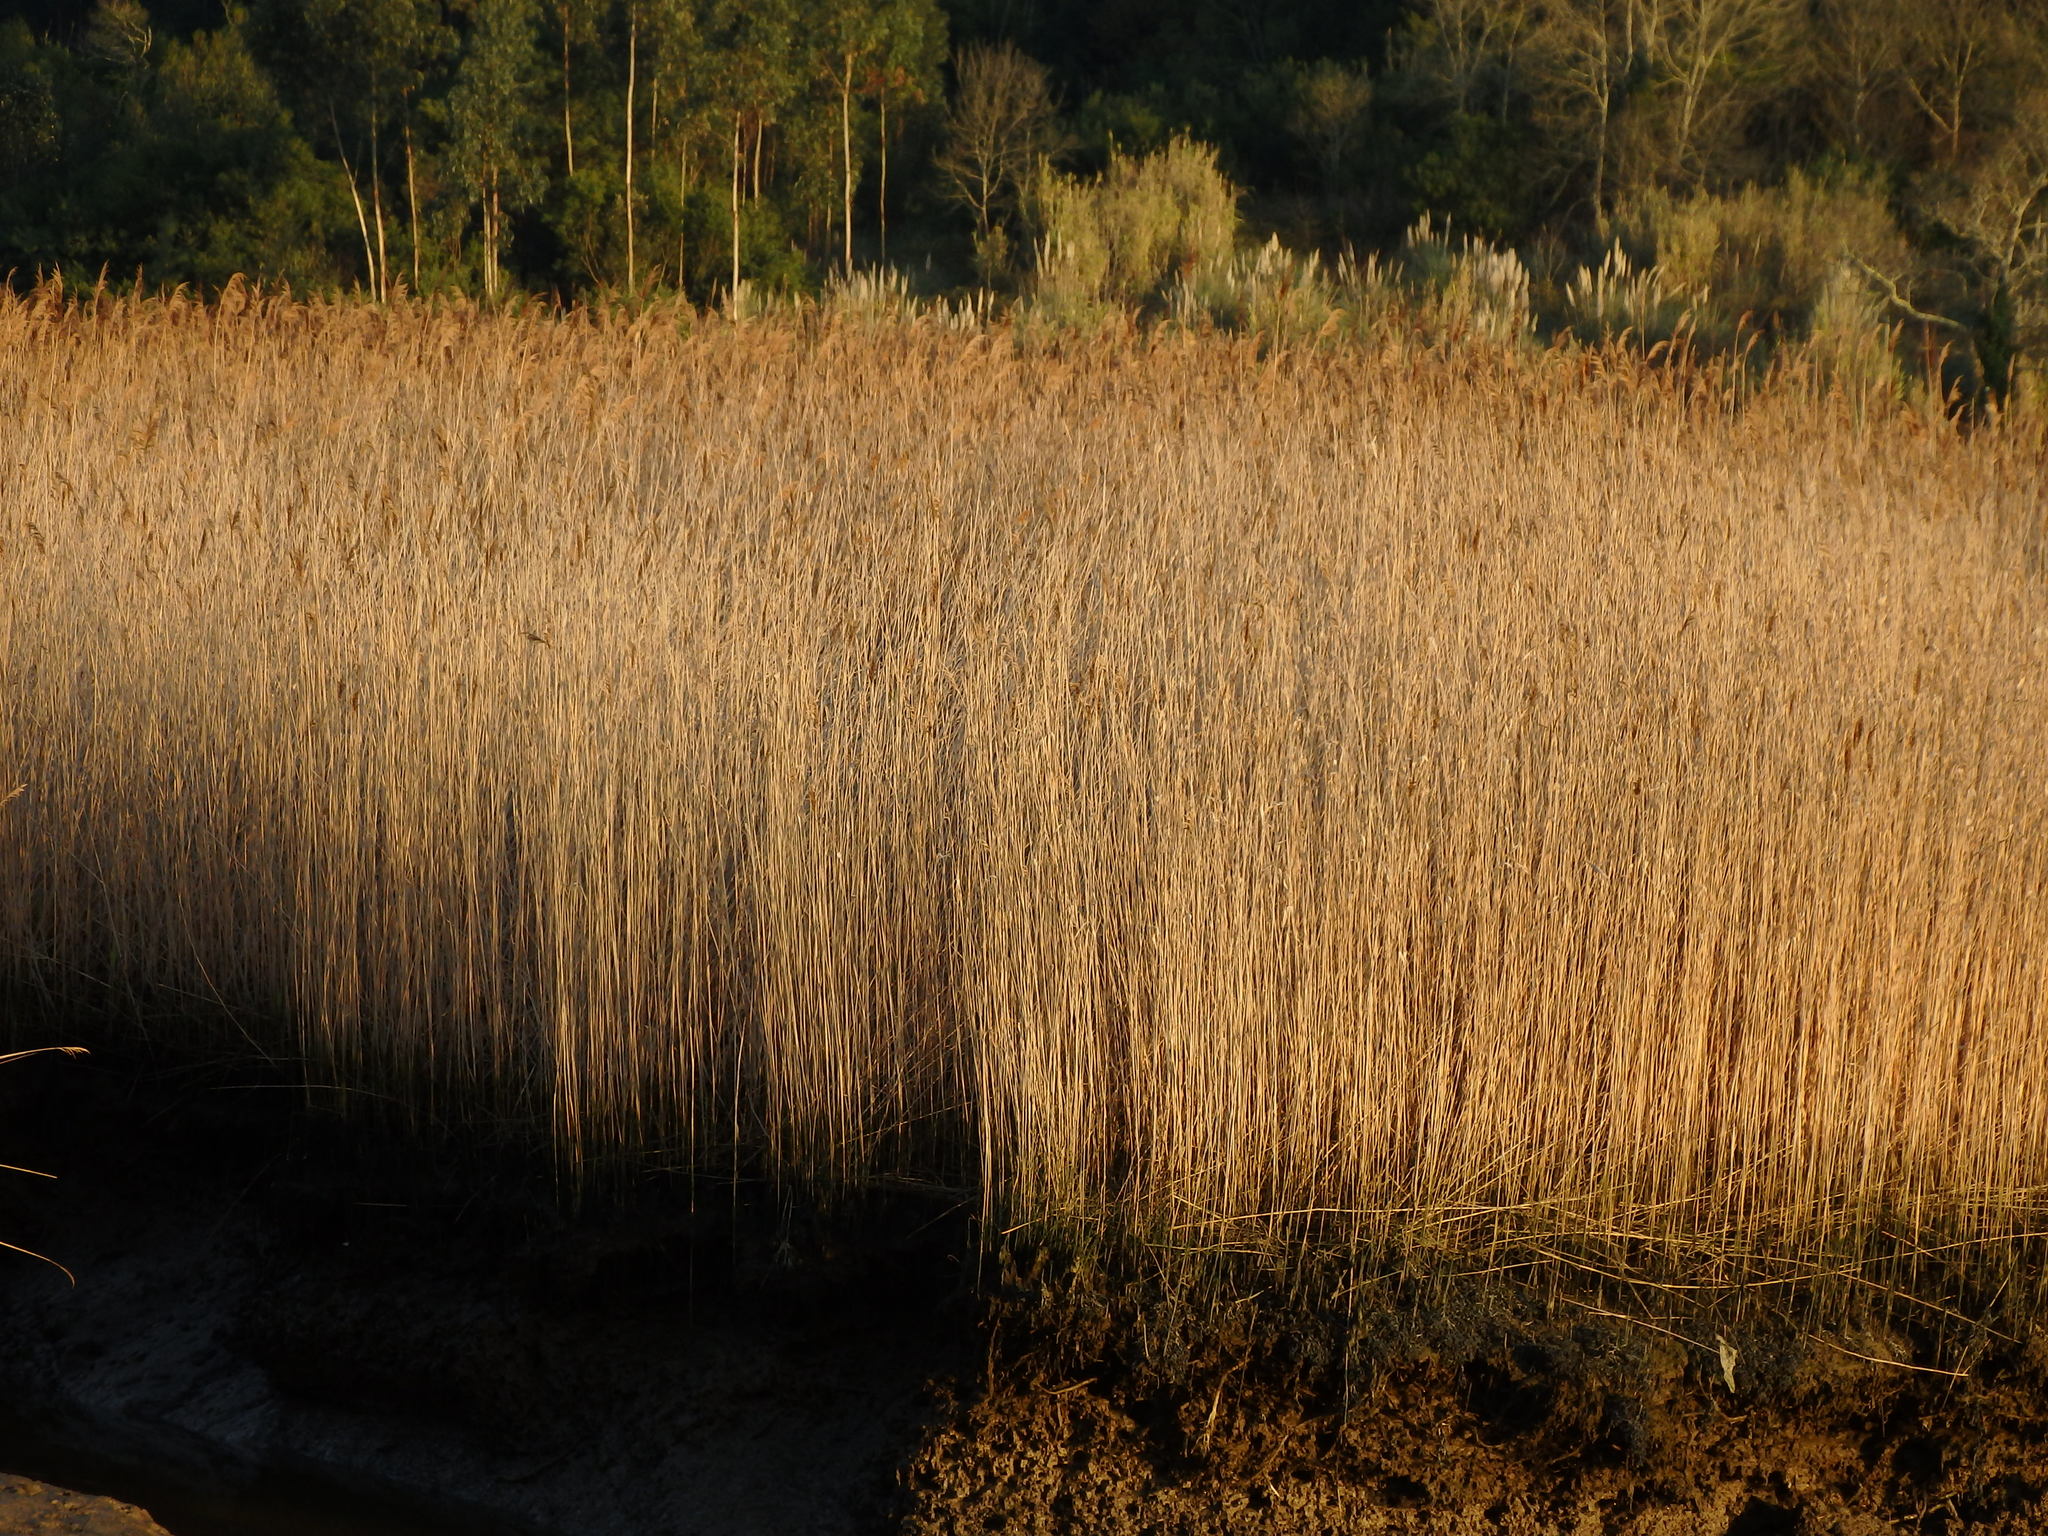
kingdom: Plantae
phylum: Tracheophyta
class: Liliopsida
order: Poales
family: Poaceae
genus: Phragmites
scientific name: Phragmites australis
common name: Common reed
